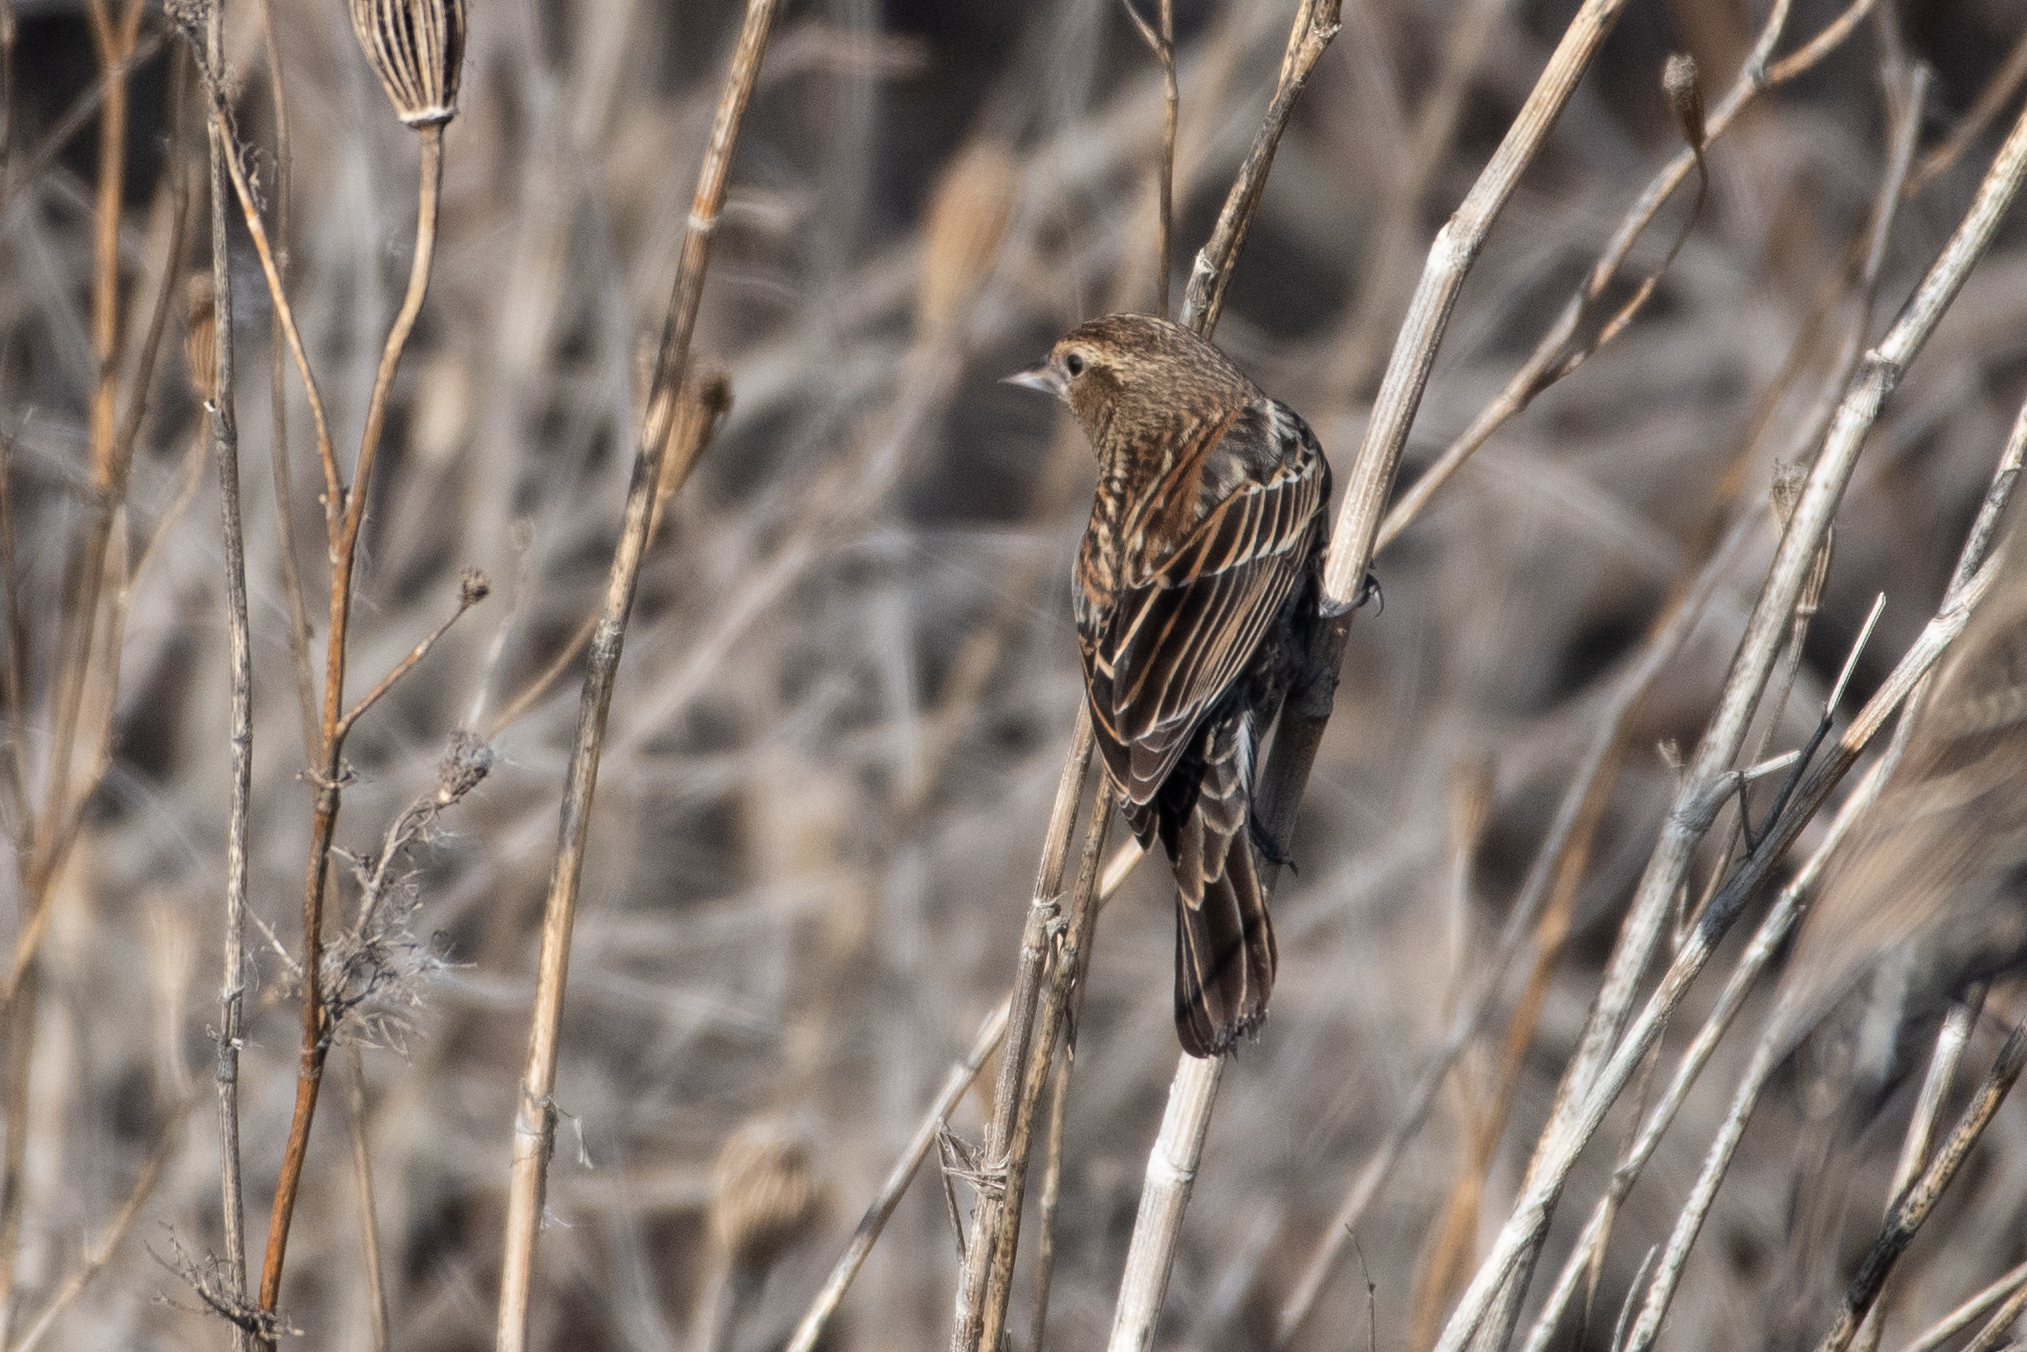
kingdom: Animalia
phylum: Chordata
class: Aves
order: Passeriformes
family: Icteridae
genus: Agelaius
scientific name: Agelaius phoeniceus
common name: Red-winged blackbird
